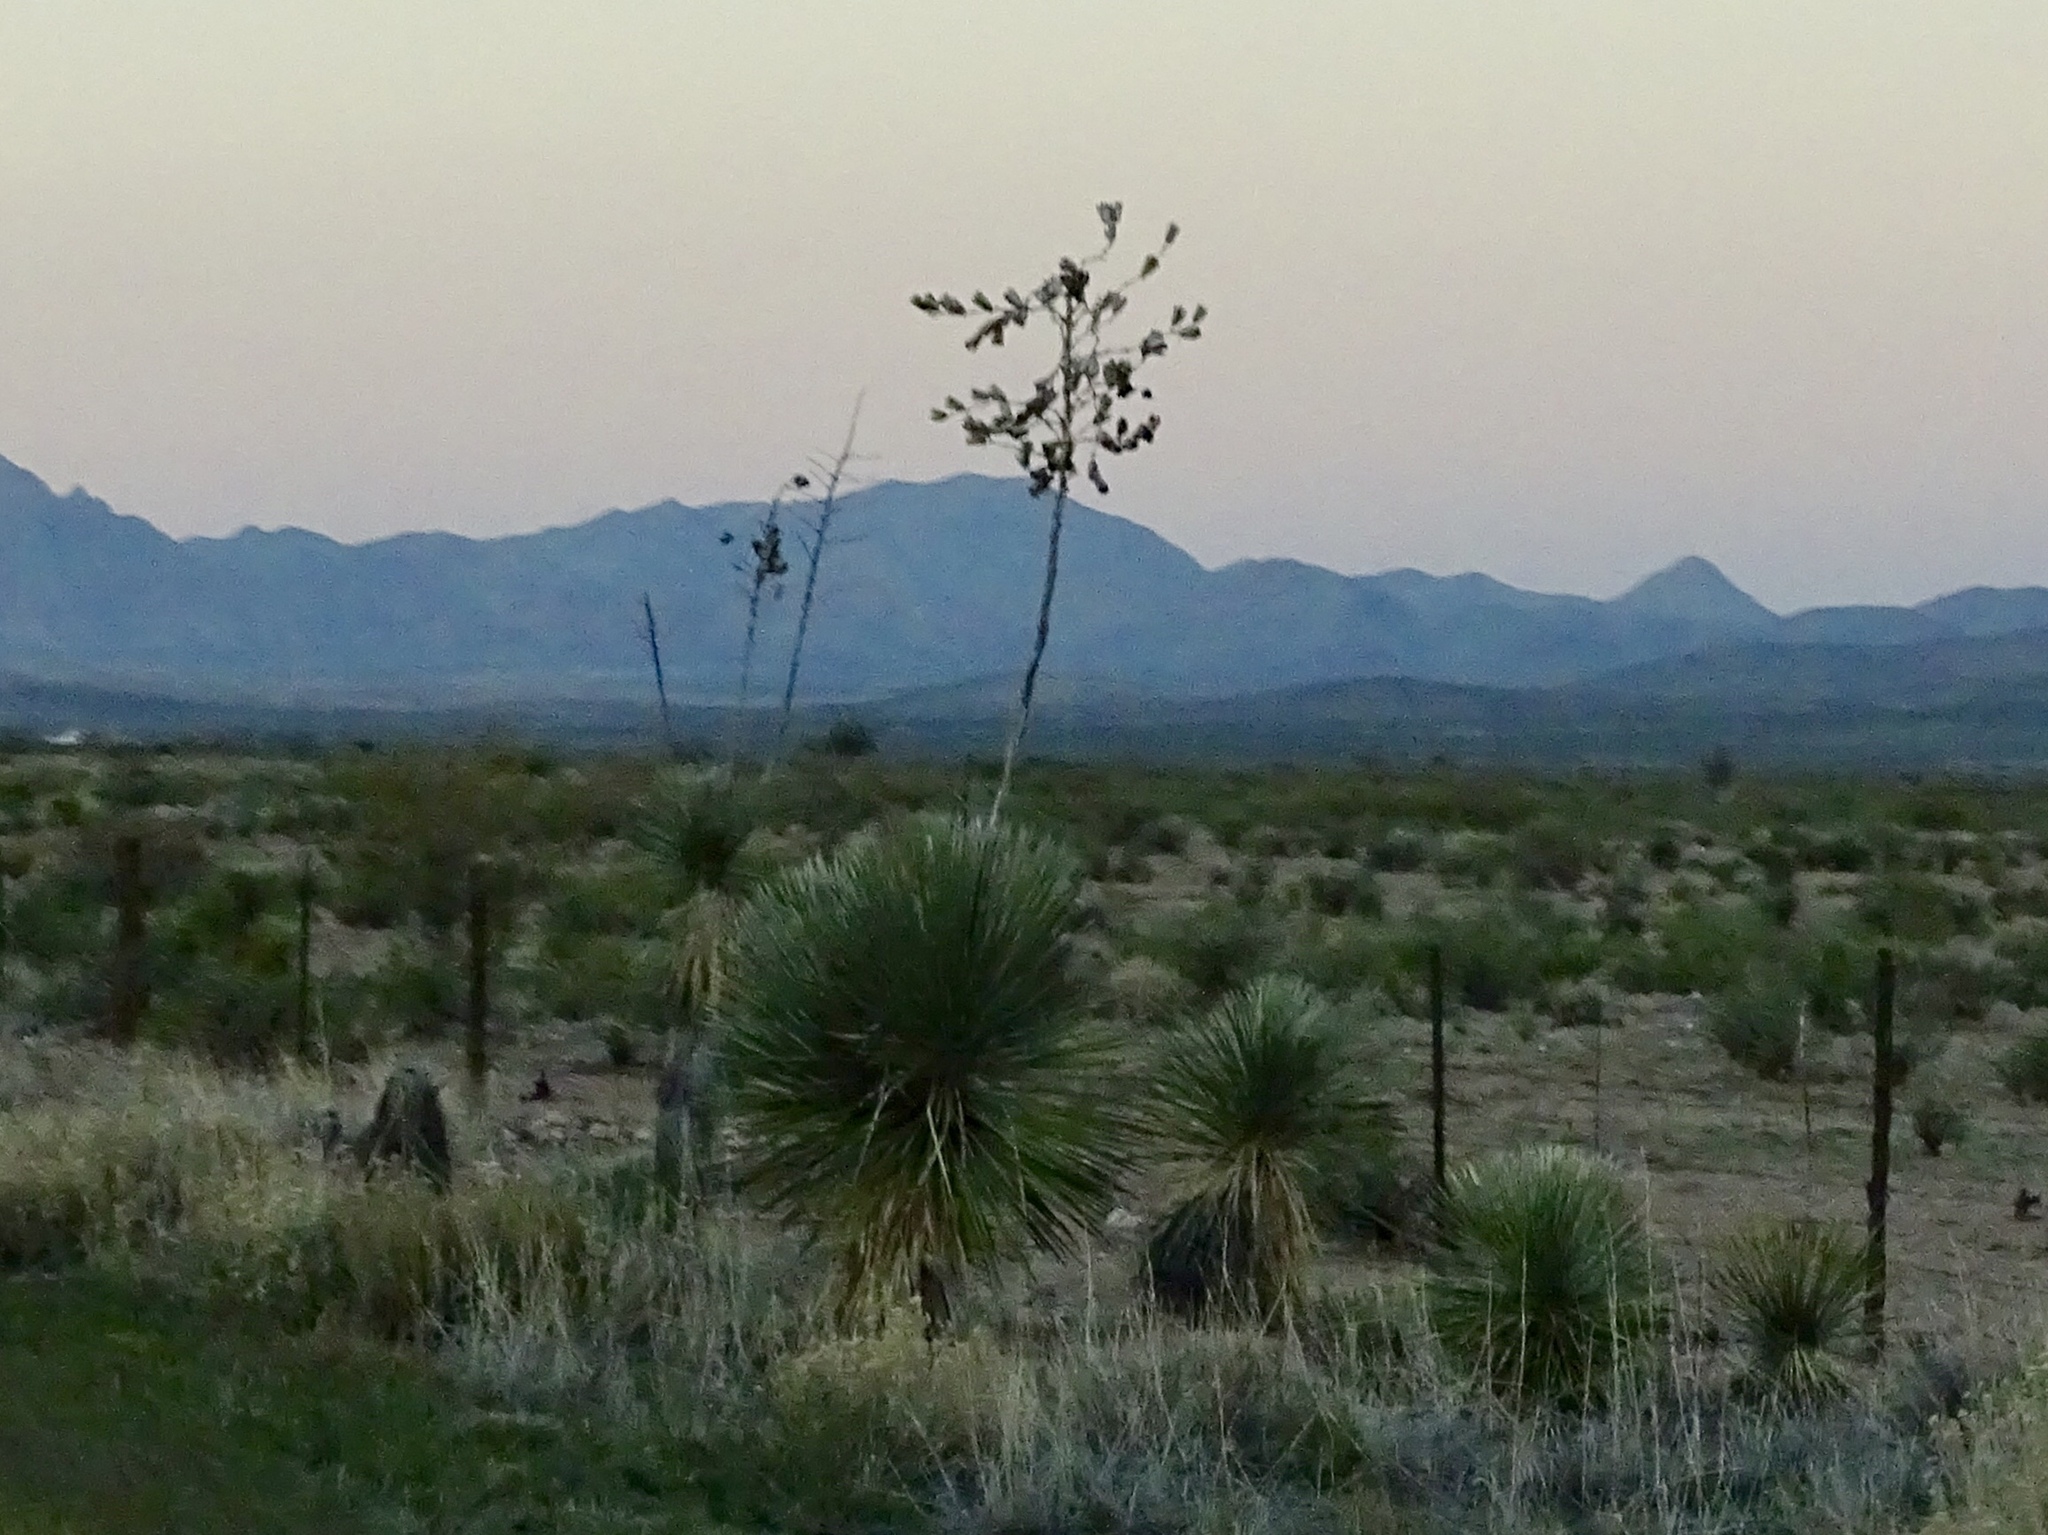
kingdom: Plantae
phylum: Tracheophyta
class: Liliopsida
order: Asparagales
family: Asparagaceae
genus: Yucca
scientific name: Yucca elata
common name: Palmella
